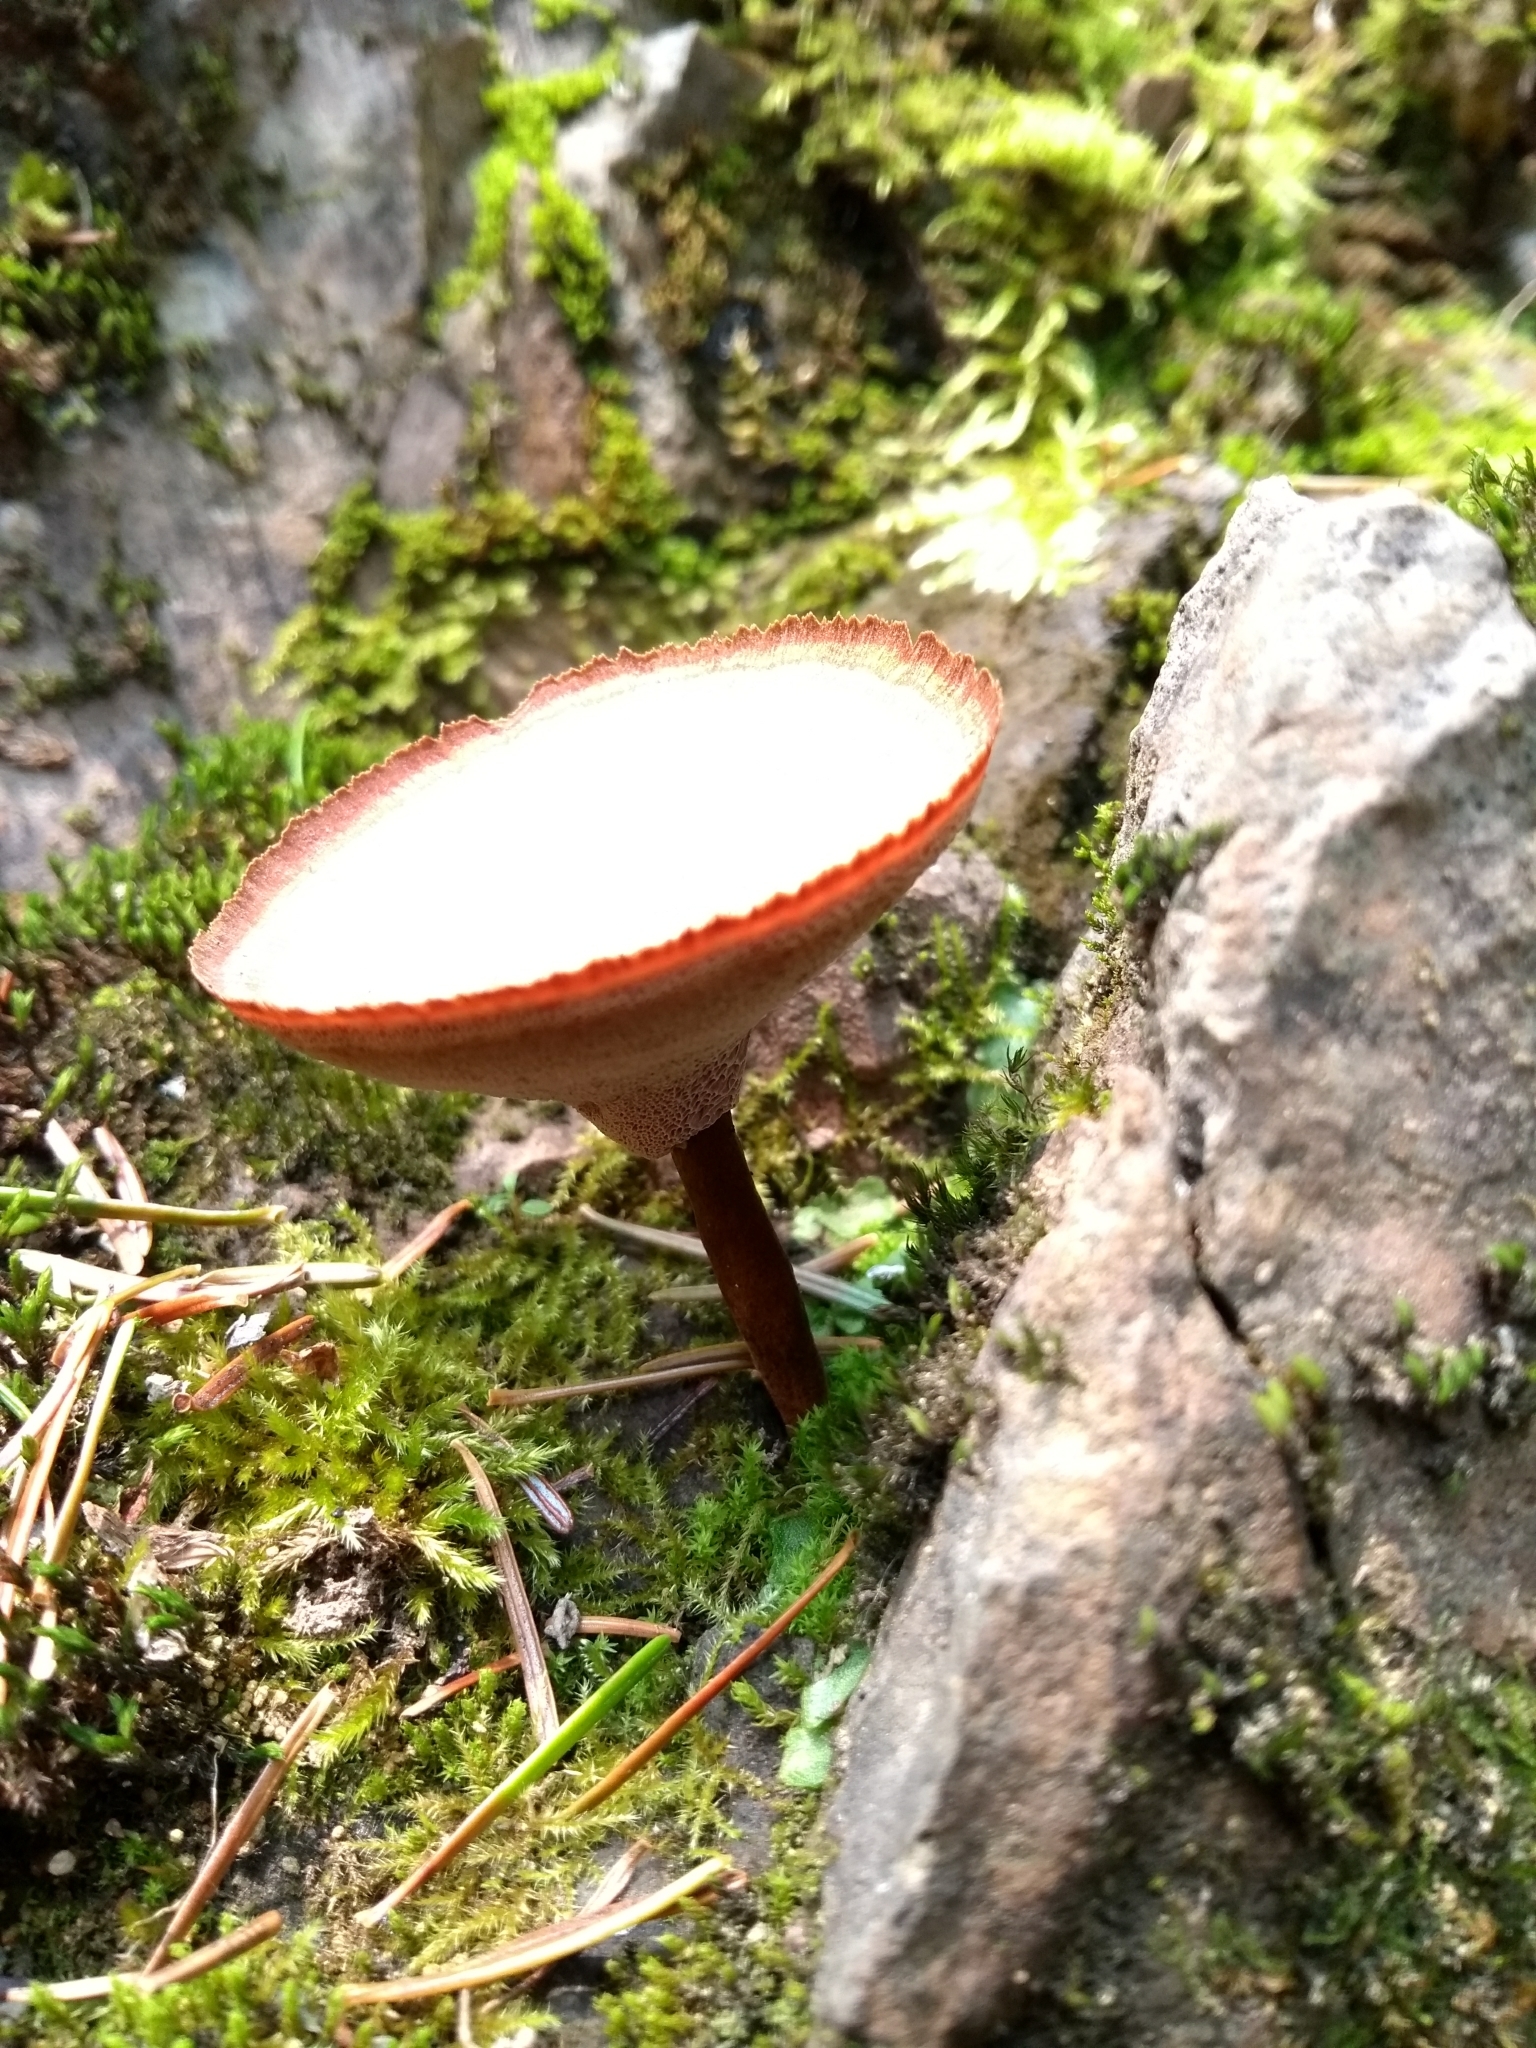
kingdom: Fungi
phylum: Basidiomycota
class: Agaricomycetes
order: Hymenochaetales
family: Hymenochaetaceae
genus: Coltricia
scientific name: Coltricia perennis
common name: Tiger's eye
